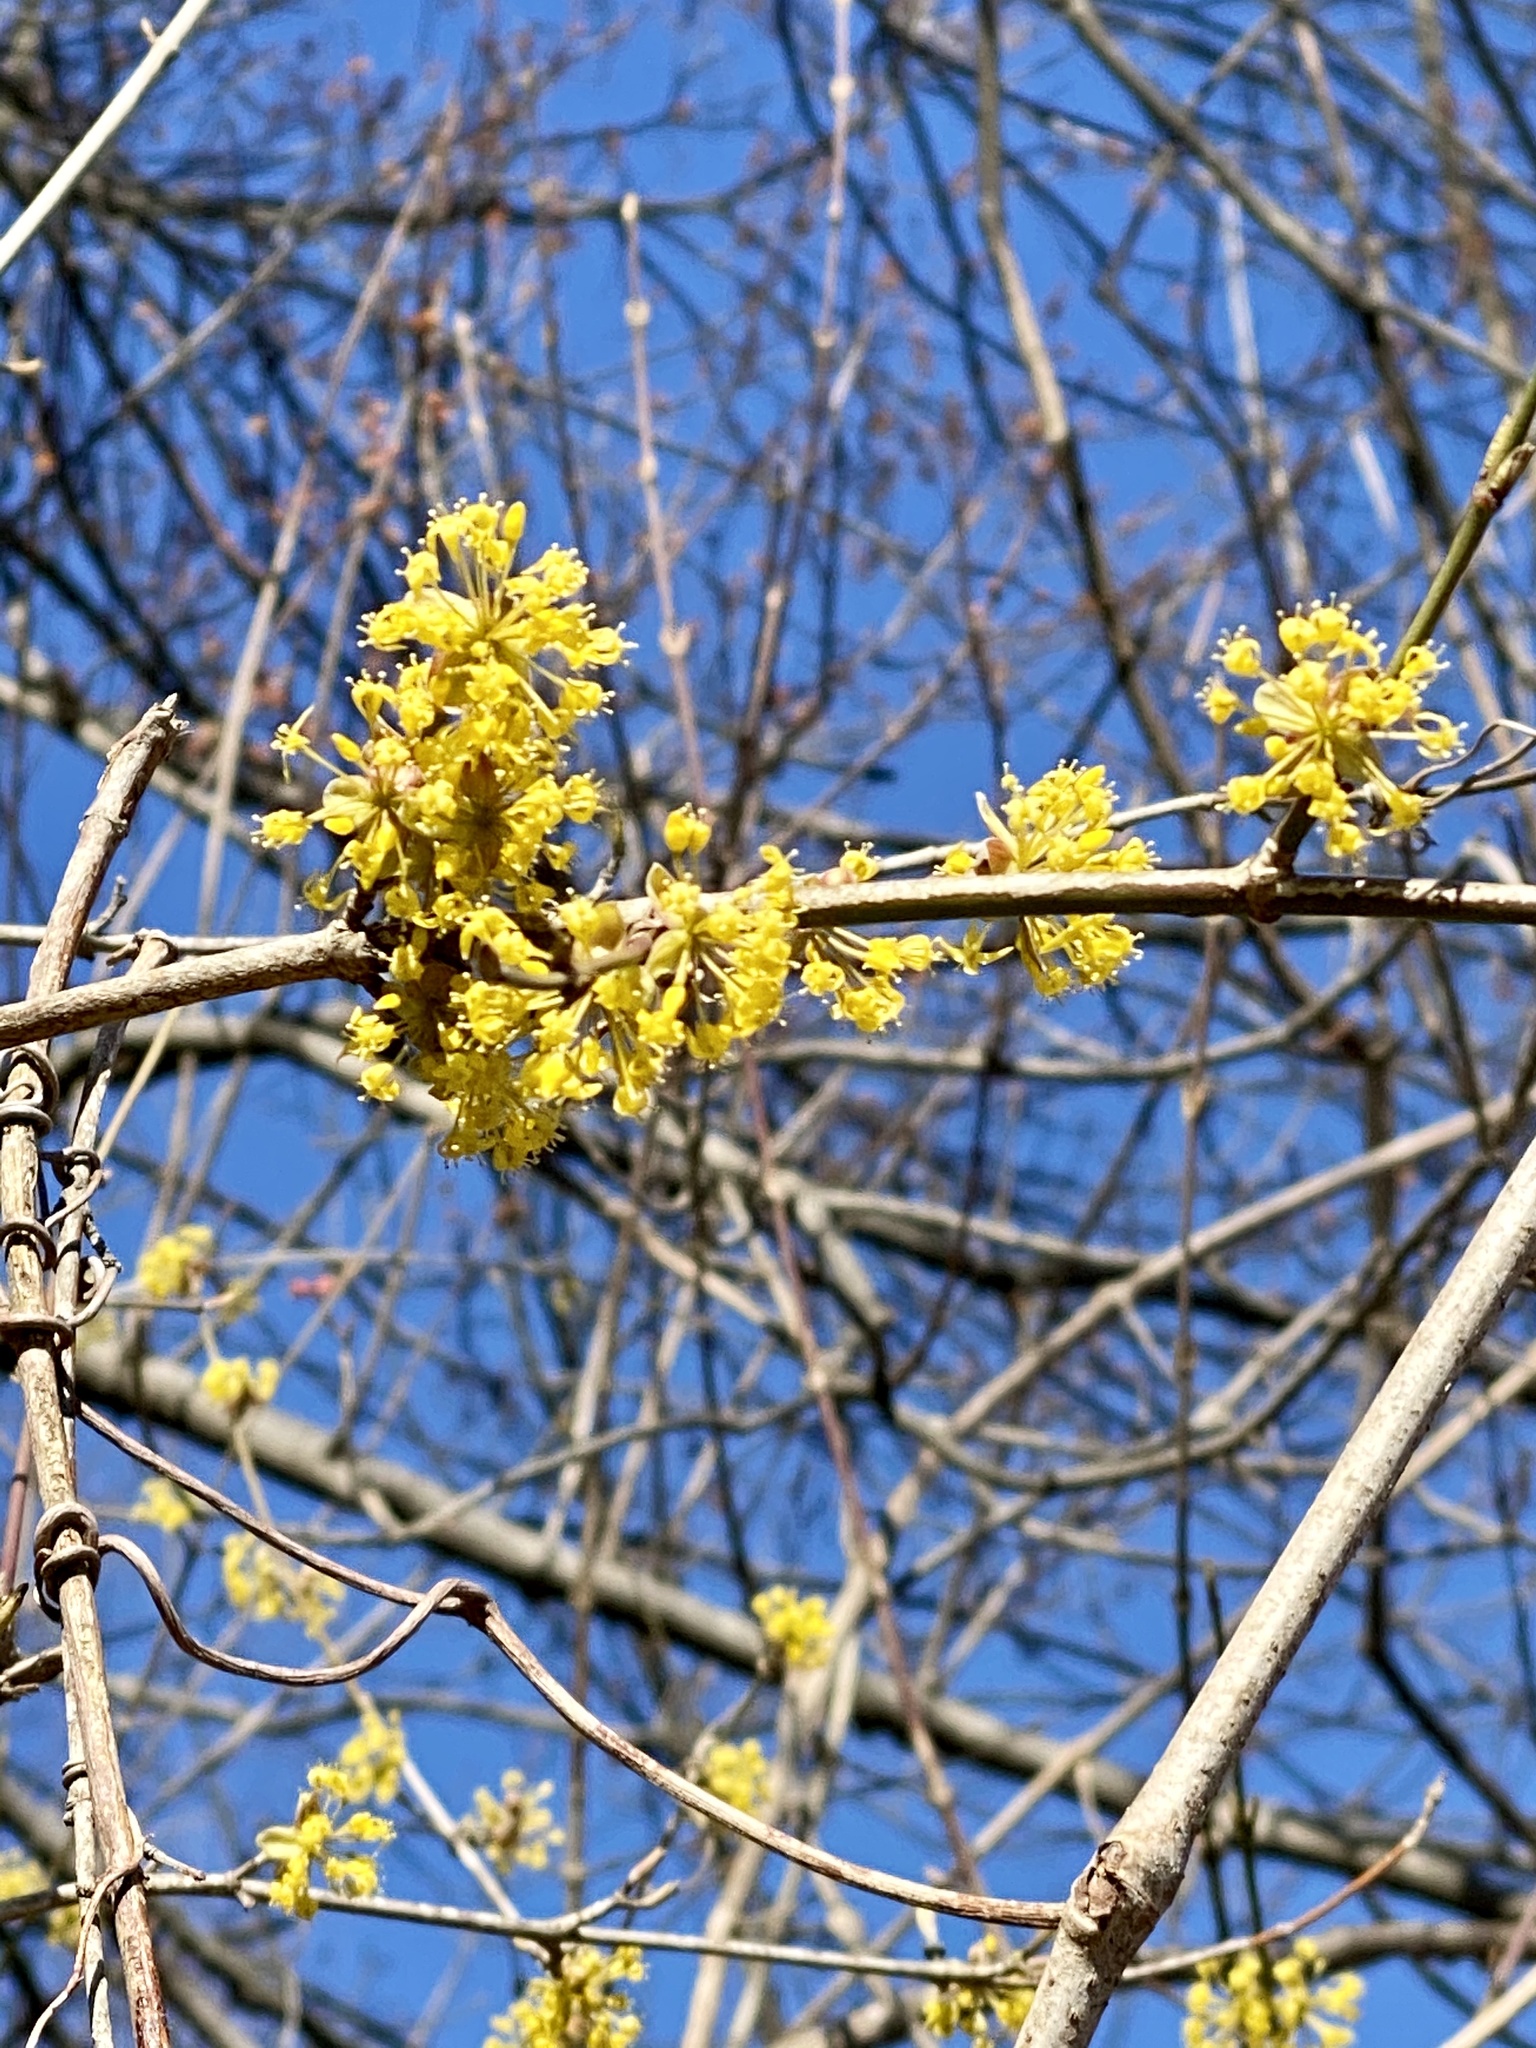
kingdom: Plantae
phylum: Tracheophyta
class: Magnoliopsida
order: Cornales
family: Cornaceae
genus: Cornus
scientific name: Cornus mas
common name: Cornelian-cherry
